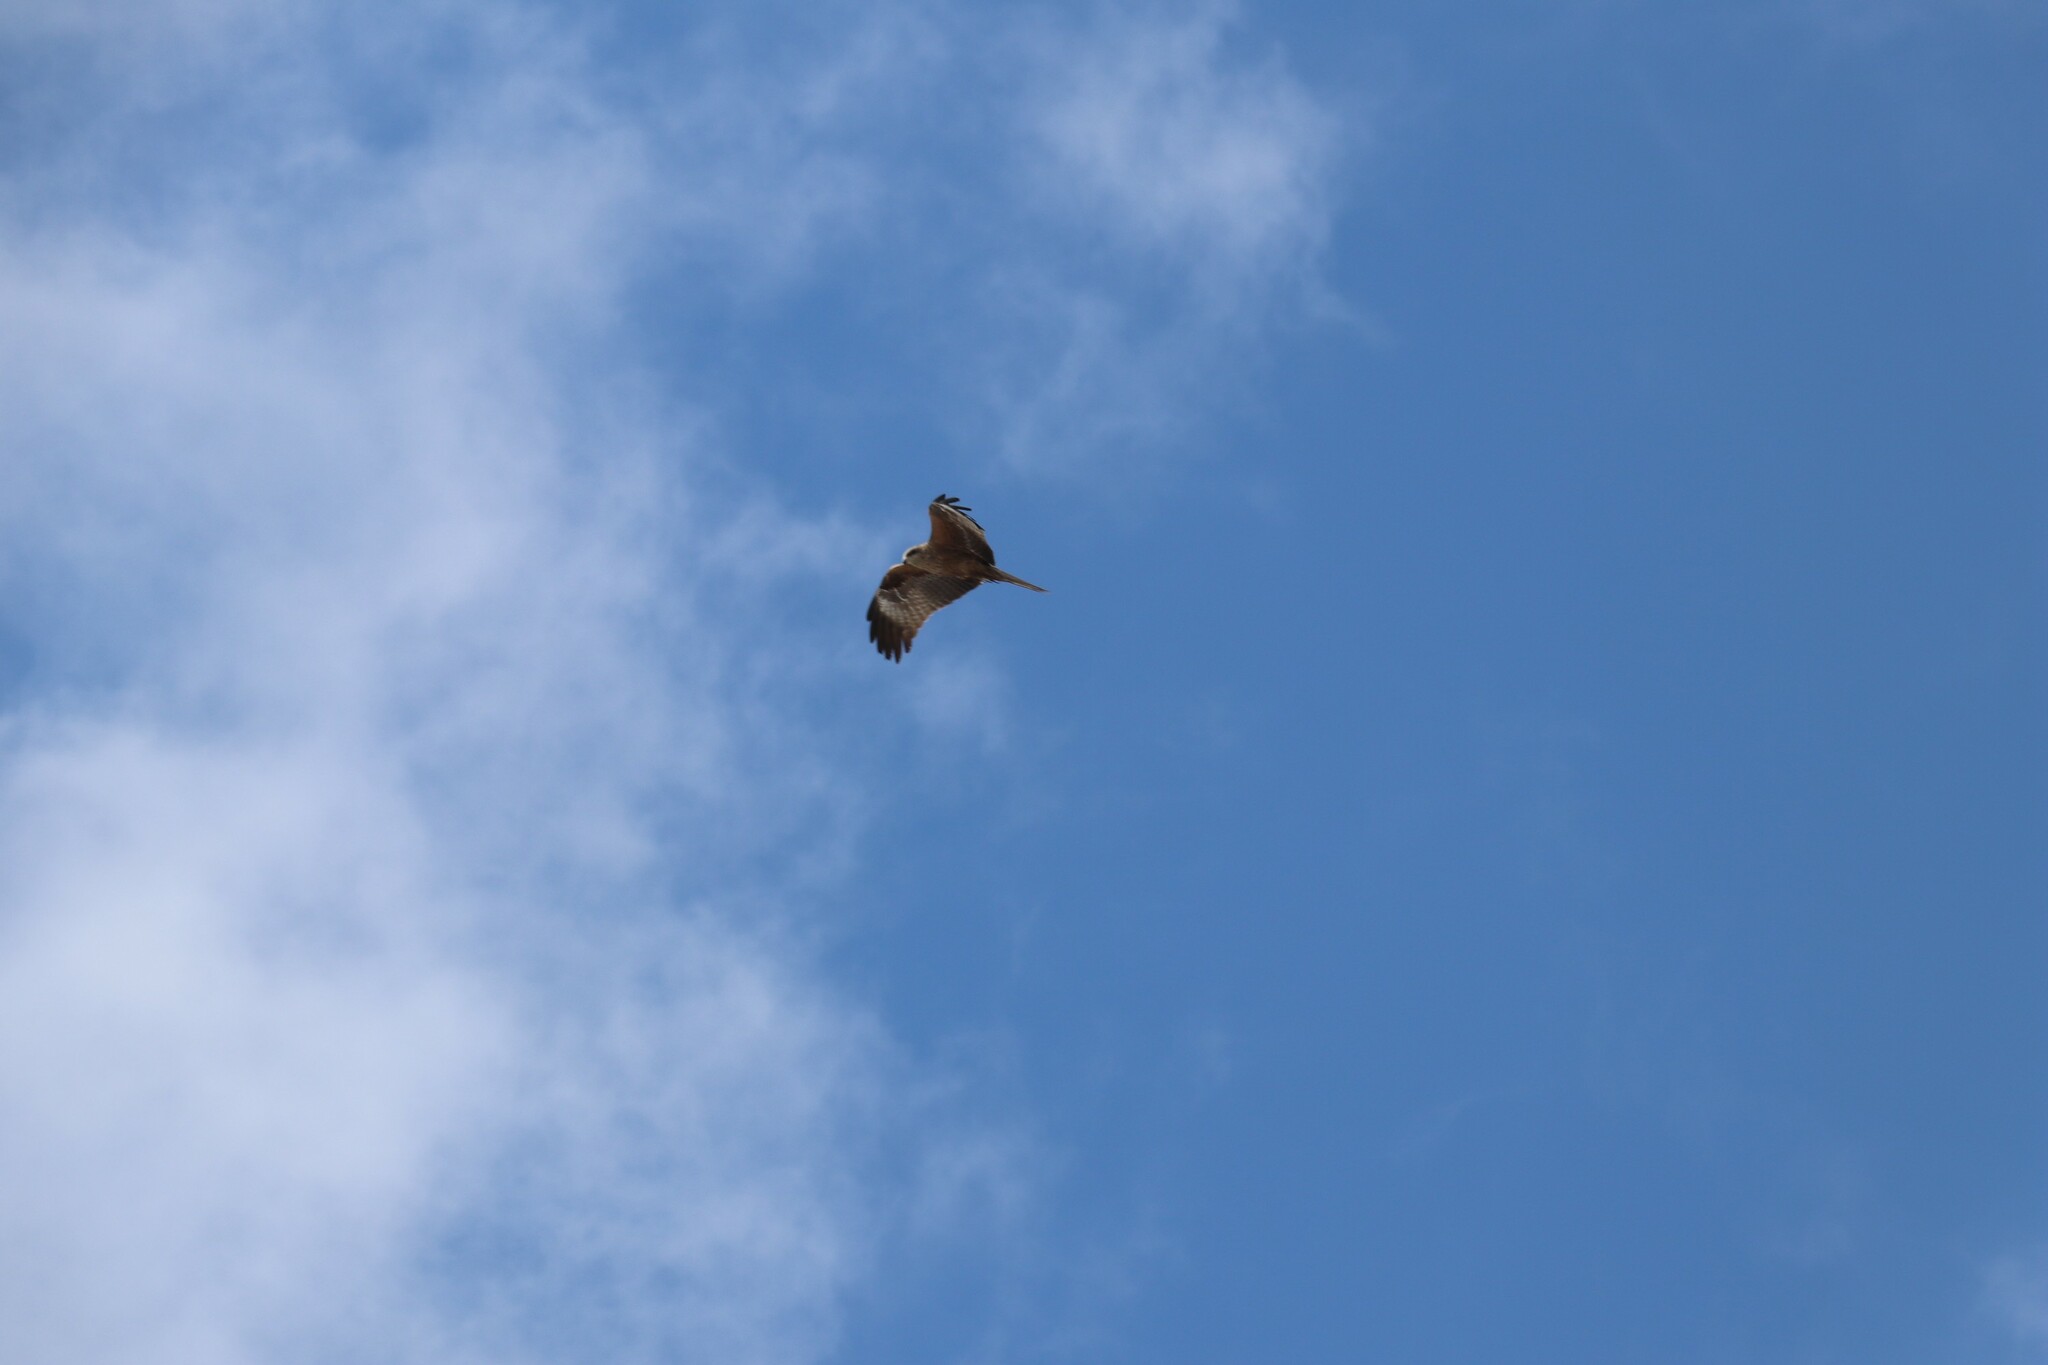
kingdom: Animalia
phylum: Chordata
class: Aves
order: Accipitriformes
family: Accipitridae
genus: Milvus
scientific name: Milvus migrans
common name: Black kite
